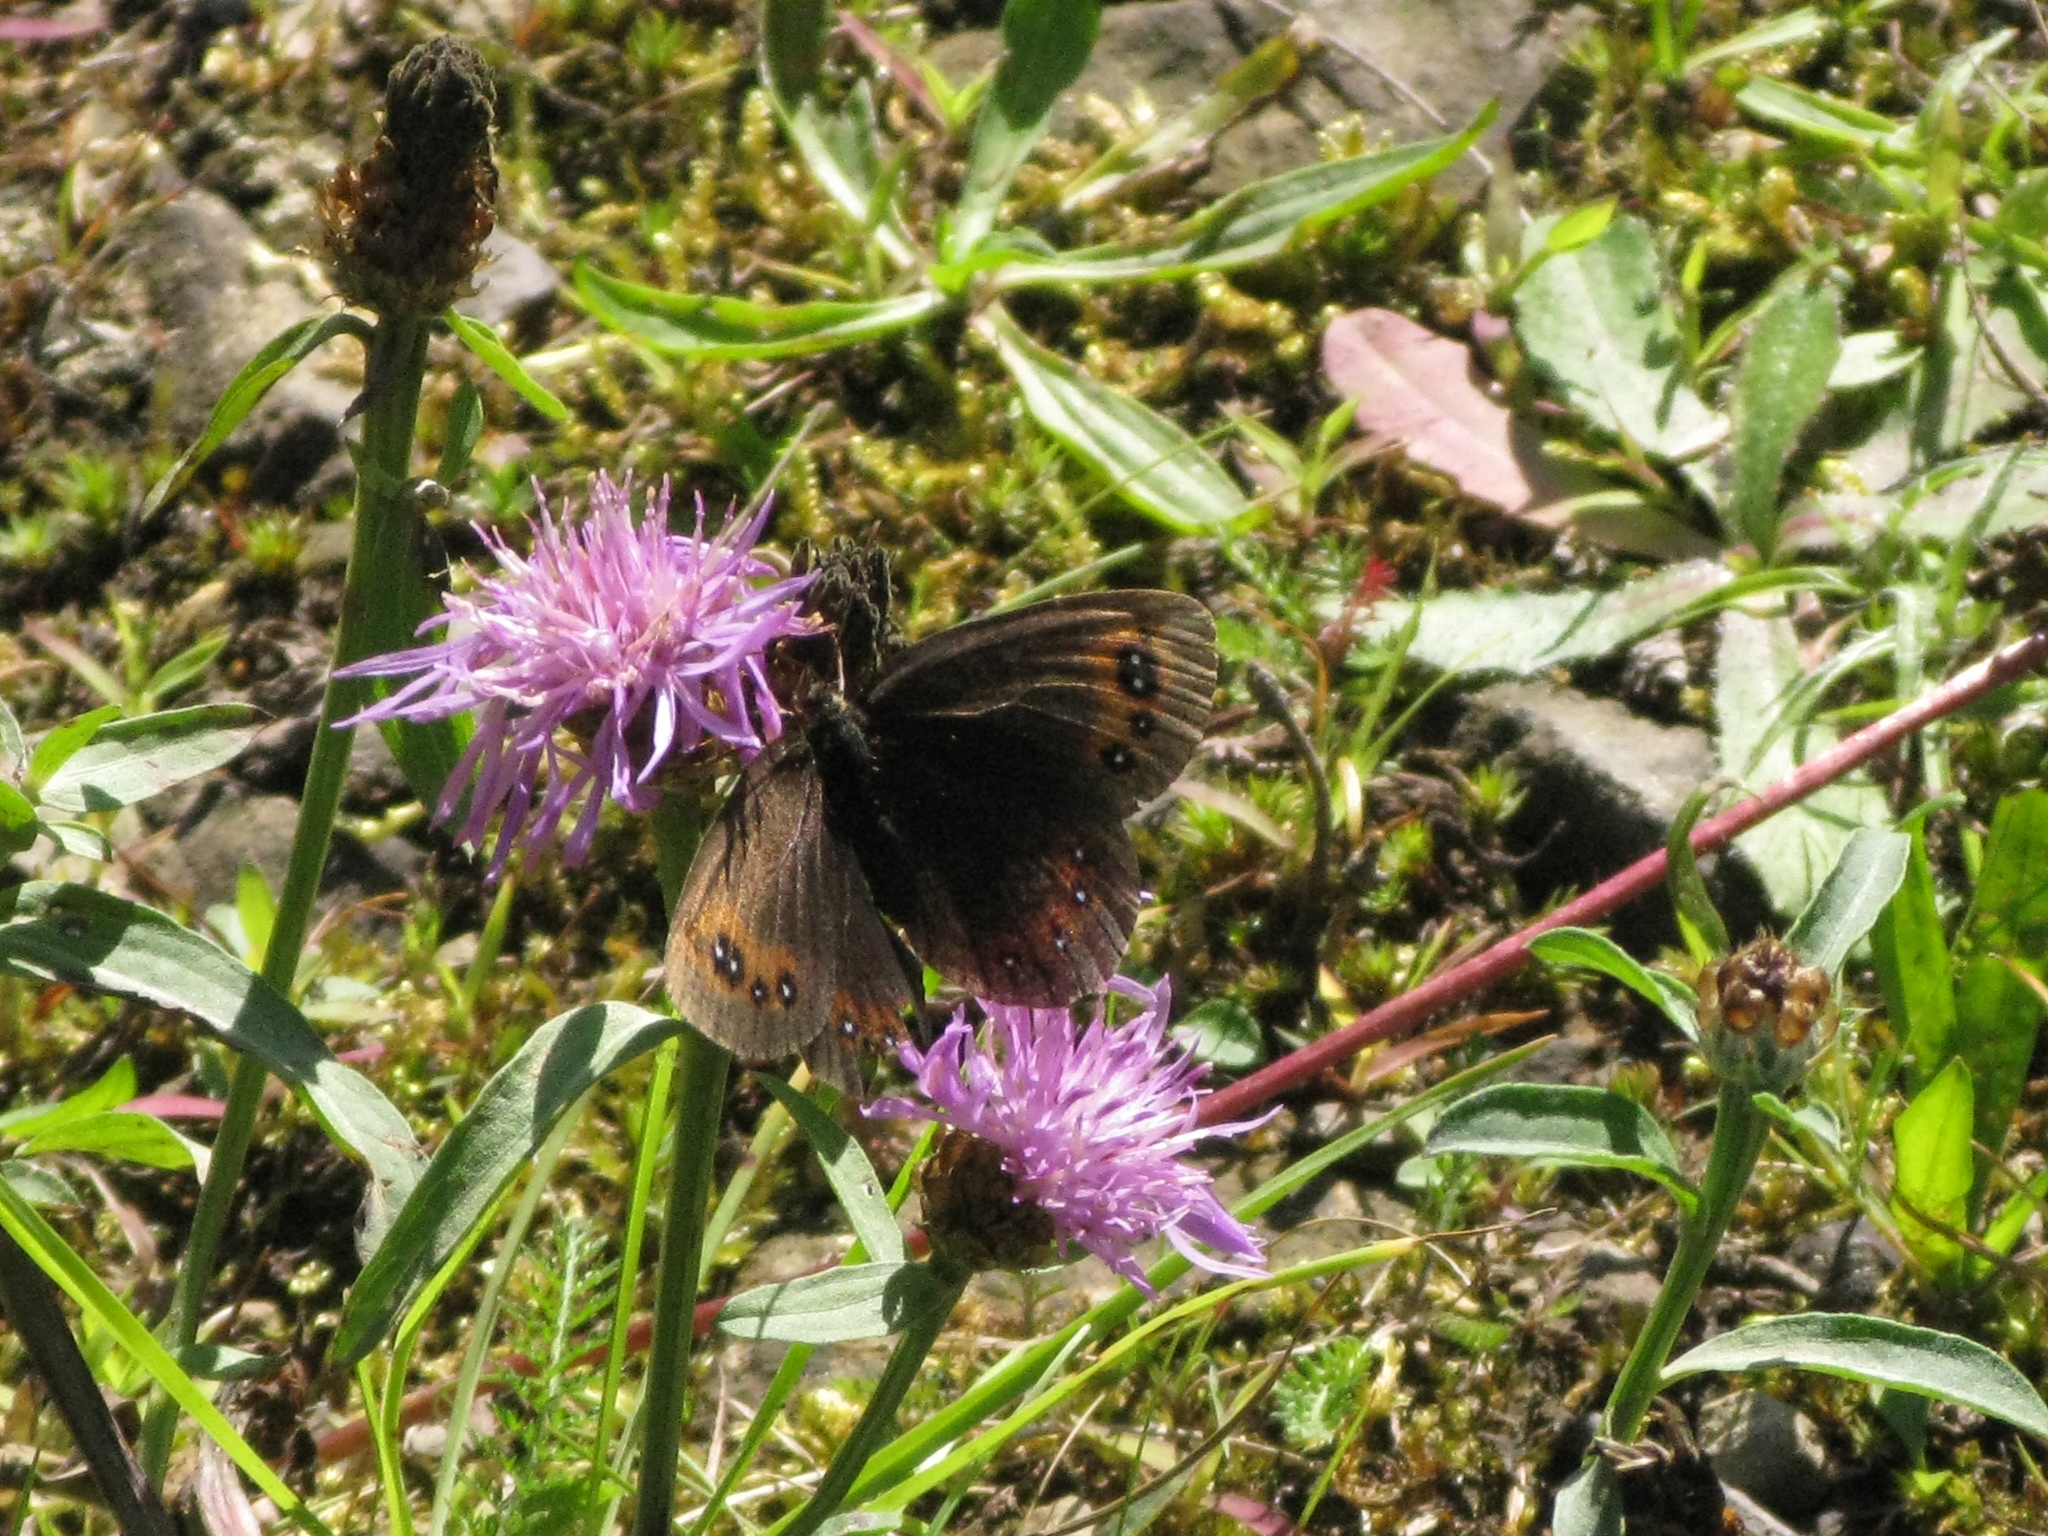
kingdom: Animalia
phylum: Arthropoda
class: Insecta
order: Lepidoptera
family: Nymphalidae
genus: Erebia
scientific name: Erebia aethiops
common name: Scotch argus
